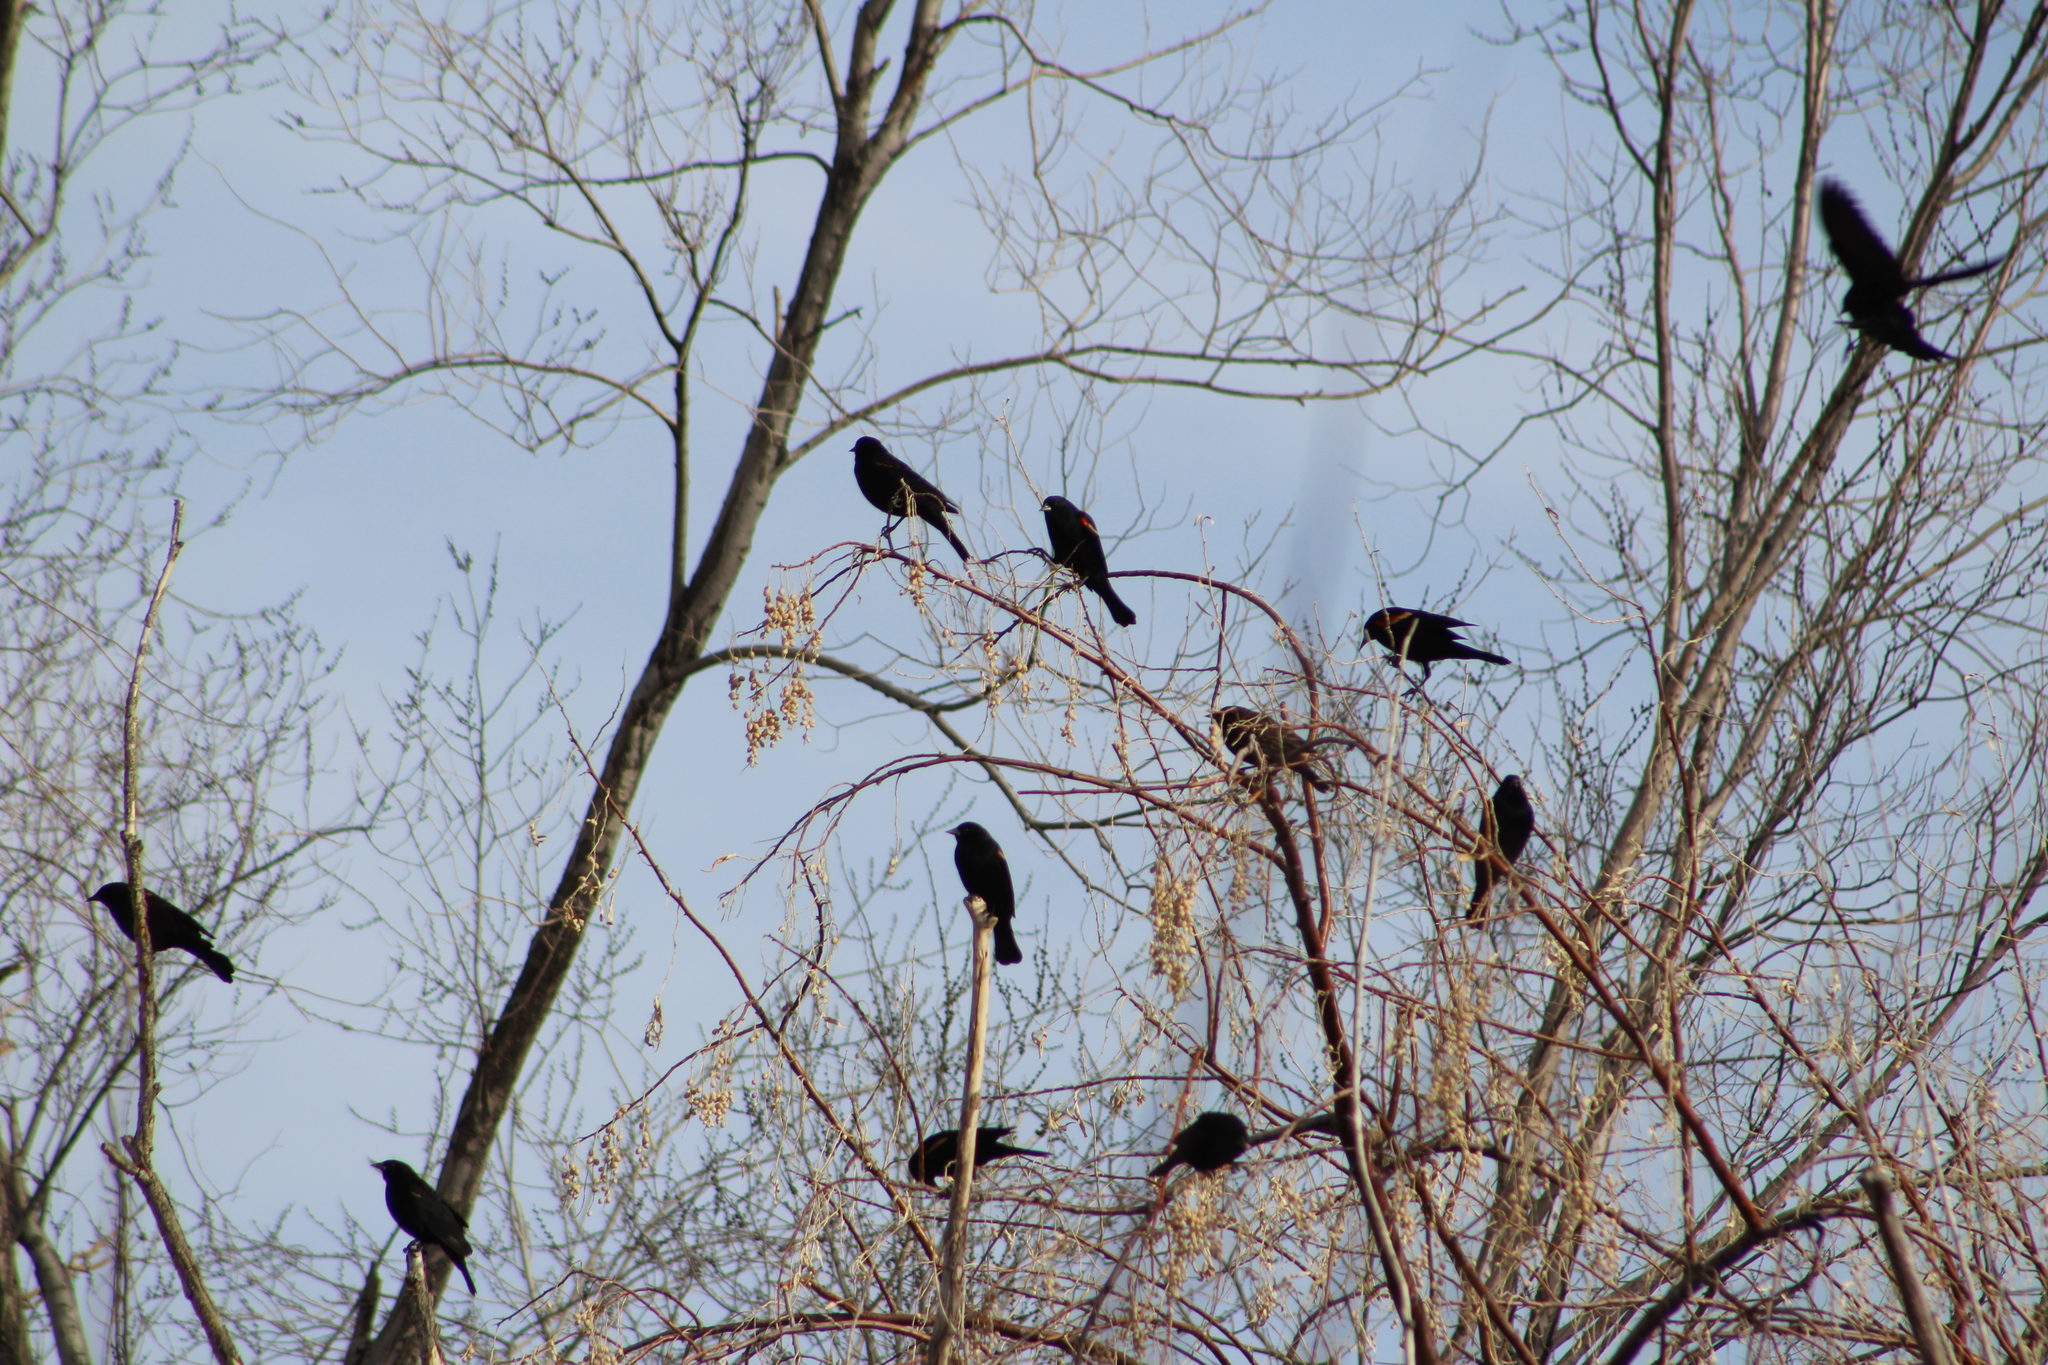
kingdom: Animalia
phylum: Chordata
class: Aves
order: Passeriformes
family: Icteridae
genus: Agelaius
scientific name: Agelaius phoeniceus
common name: Red-winged blackbird
